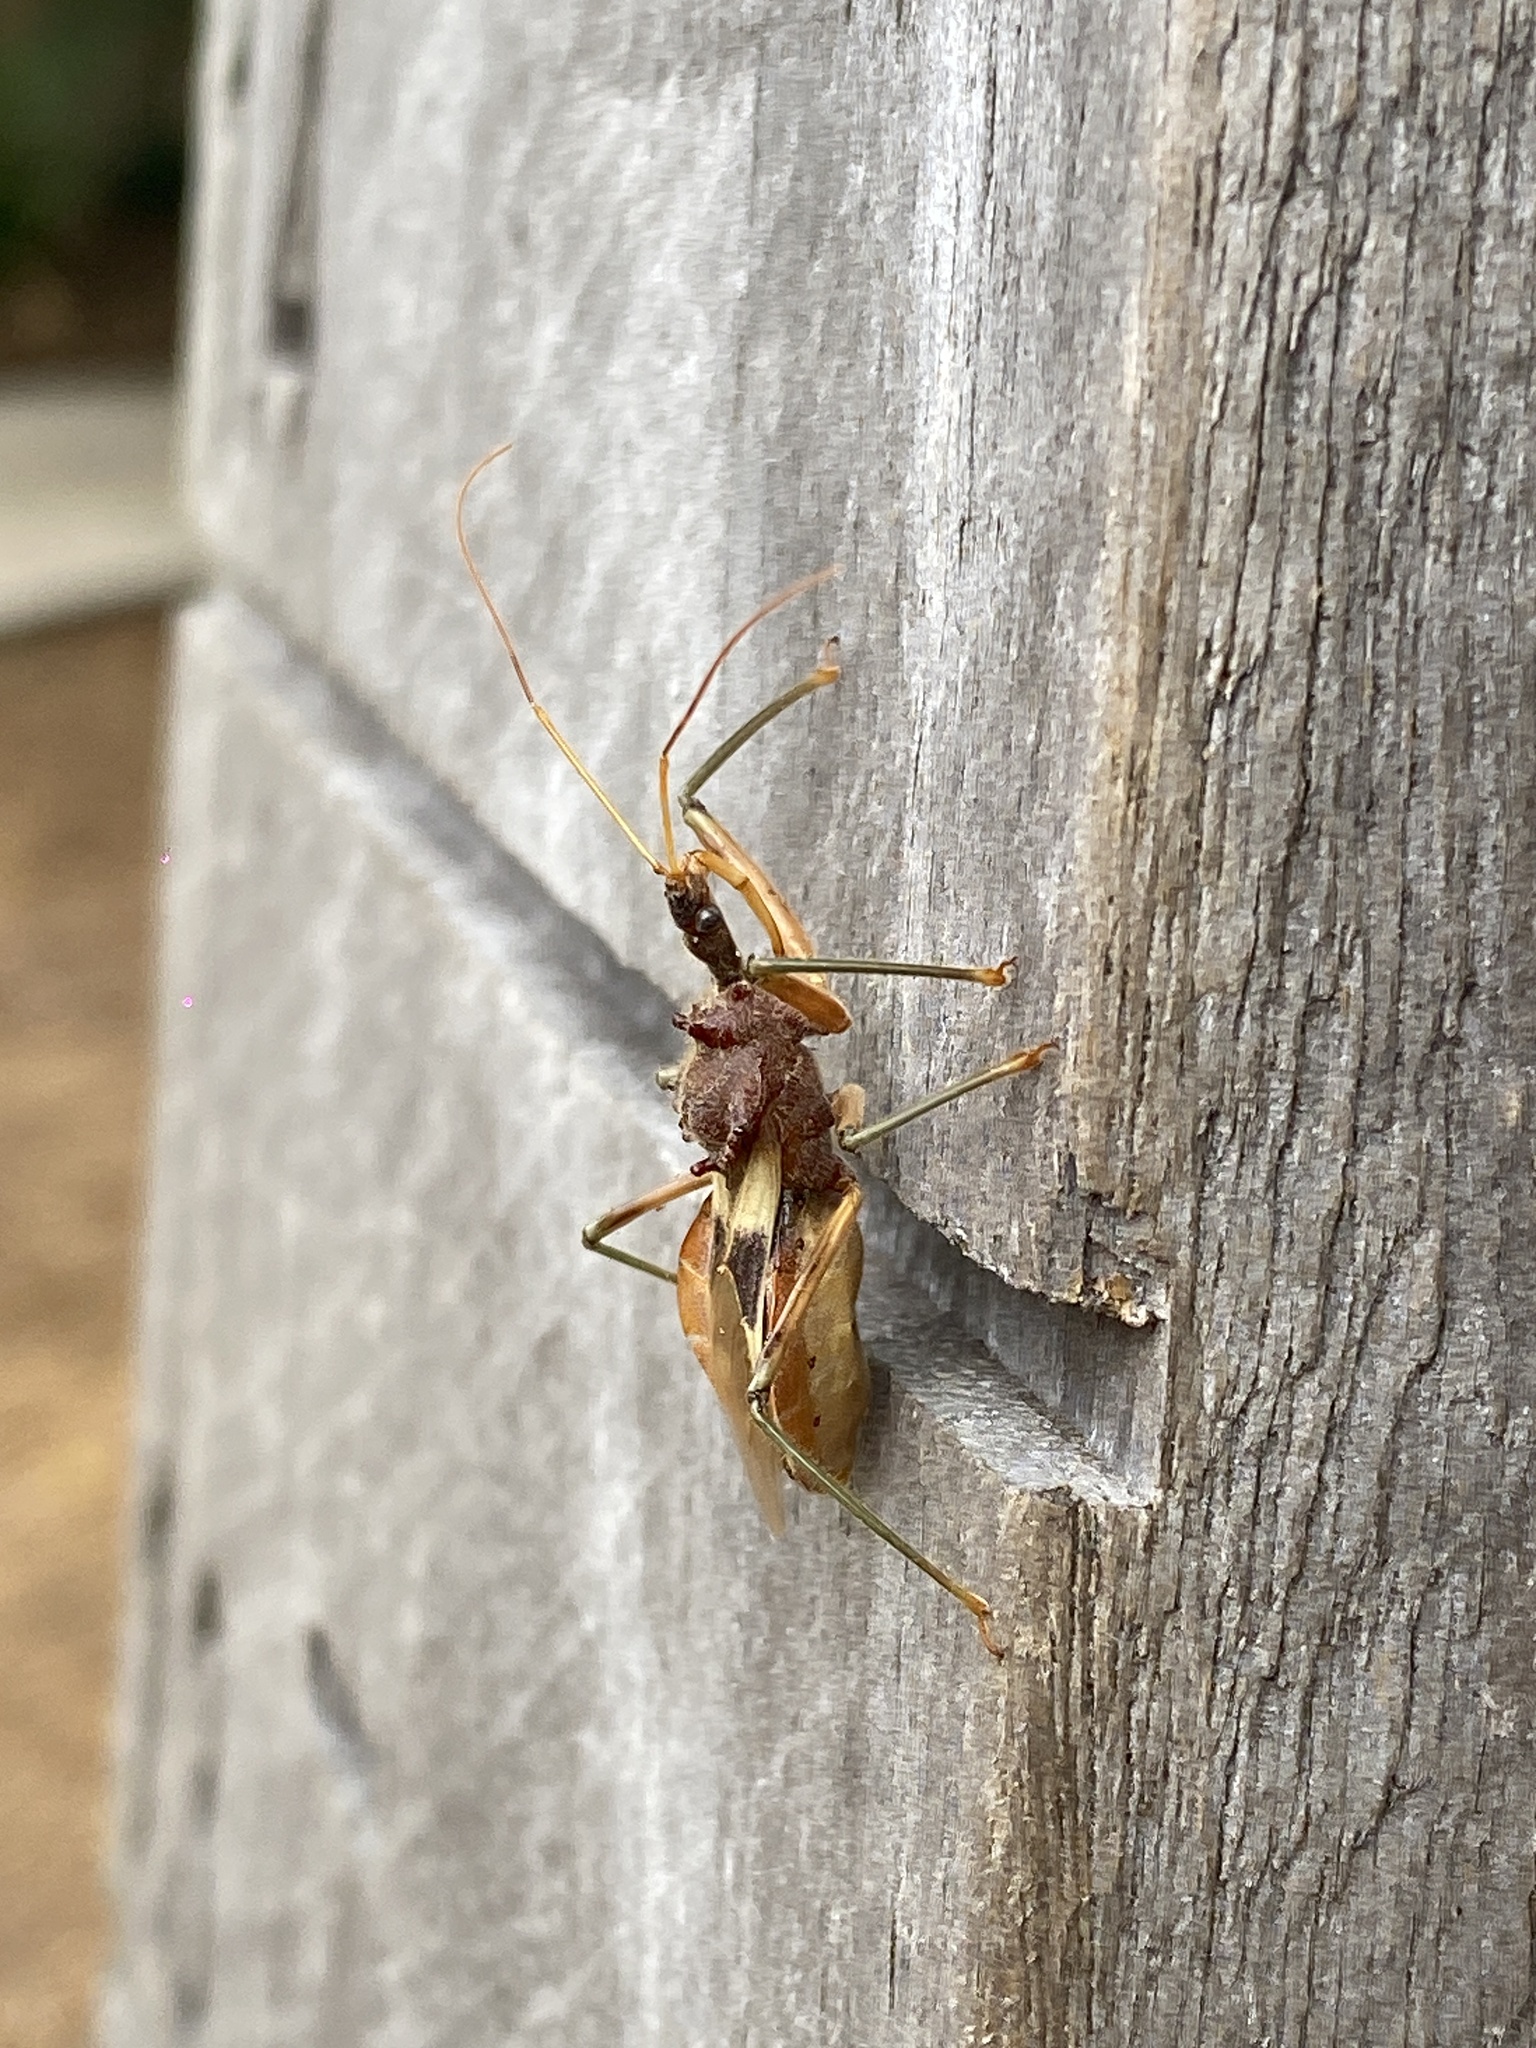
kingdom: Animalia
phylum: Arthropoda
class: Insecta
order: Hemiptera
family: Reduviidae
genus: Pristhesancus
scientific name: Pristhesancus plagipennis
